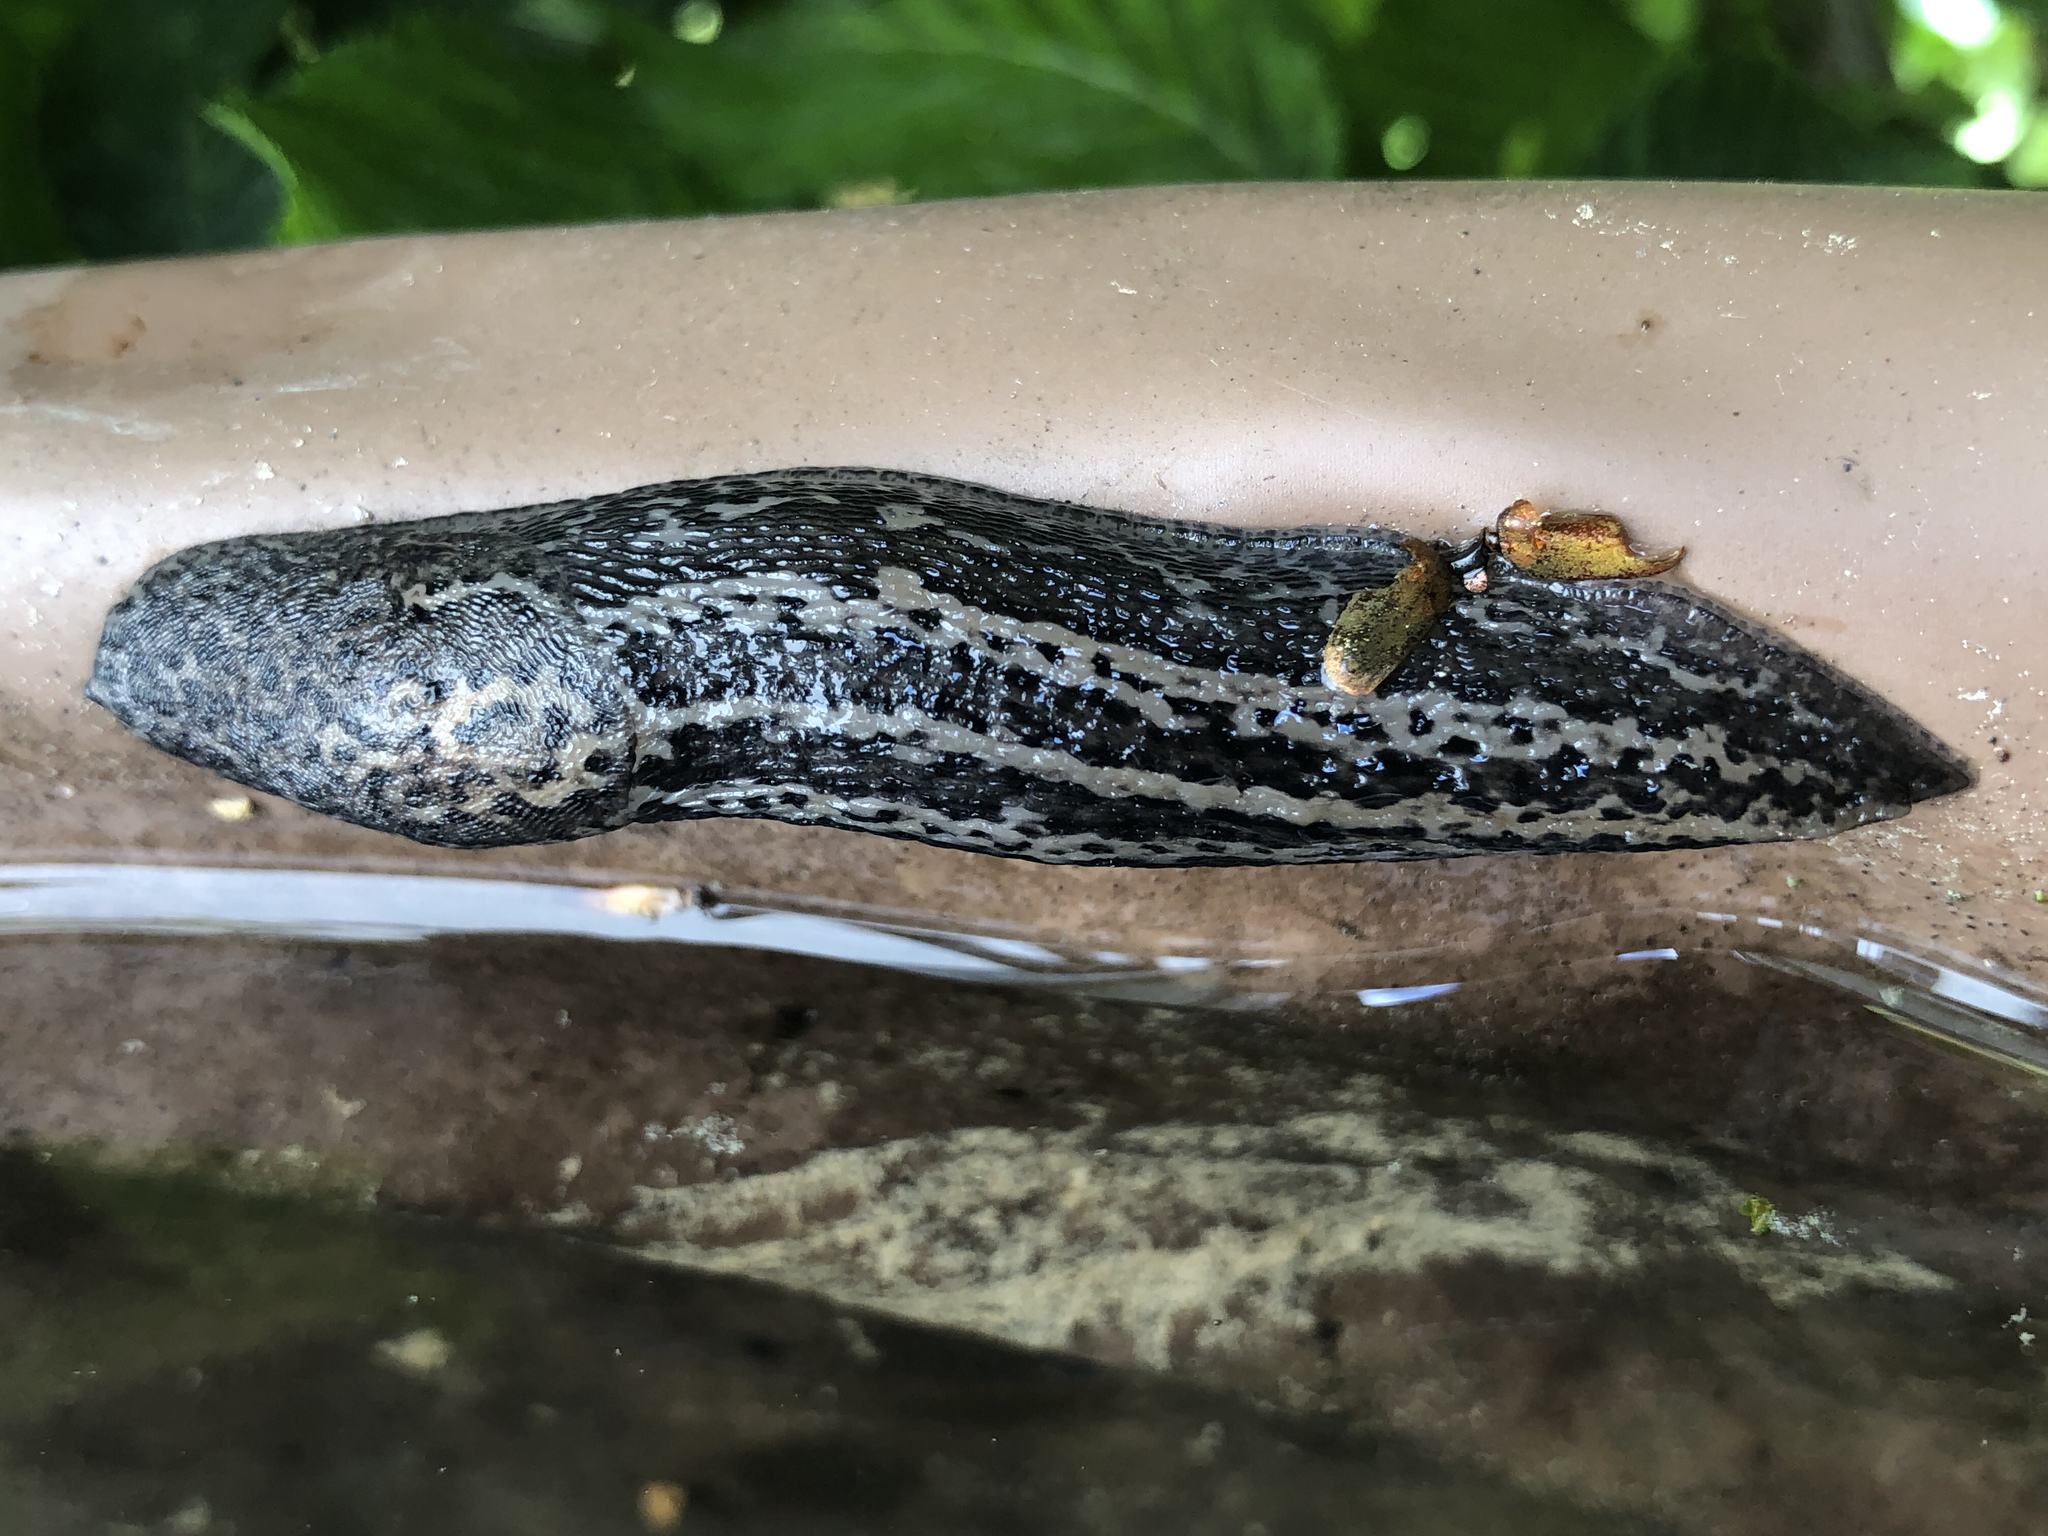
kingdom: Animalia
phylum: Mollusca
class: Gastropoda
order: Stylommatophora
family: Limacidae
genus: Limax
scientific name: Limax maximus
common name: Great grey slug
